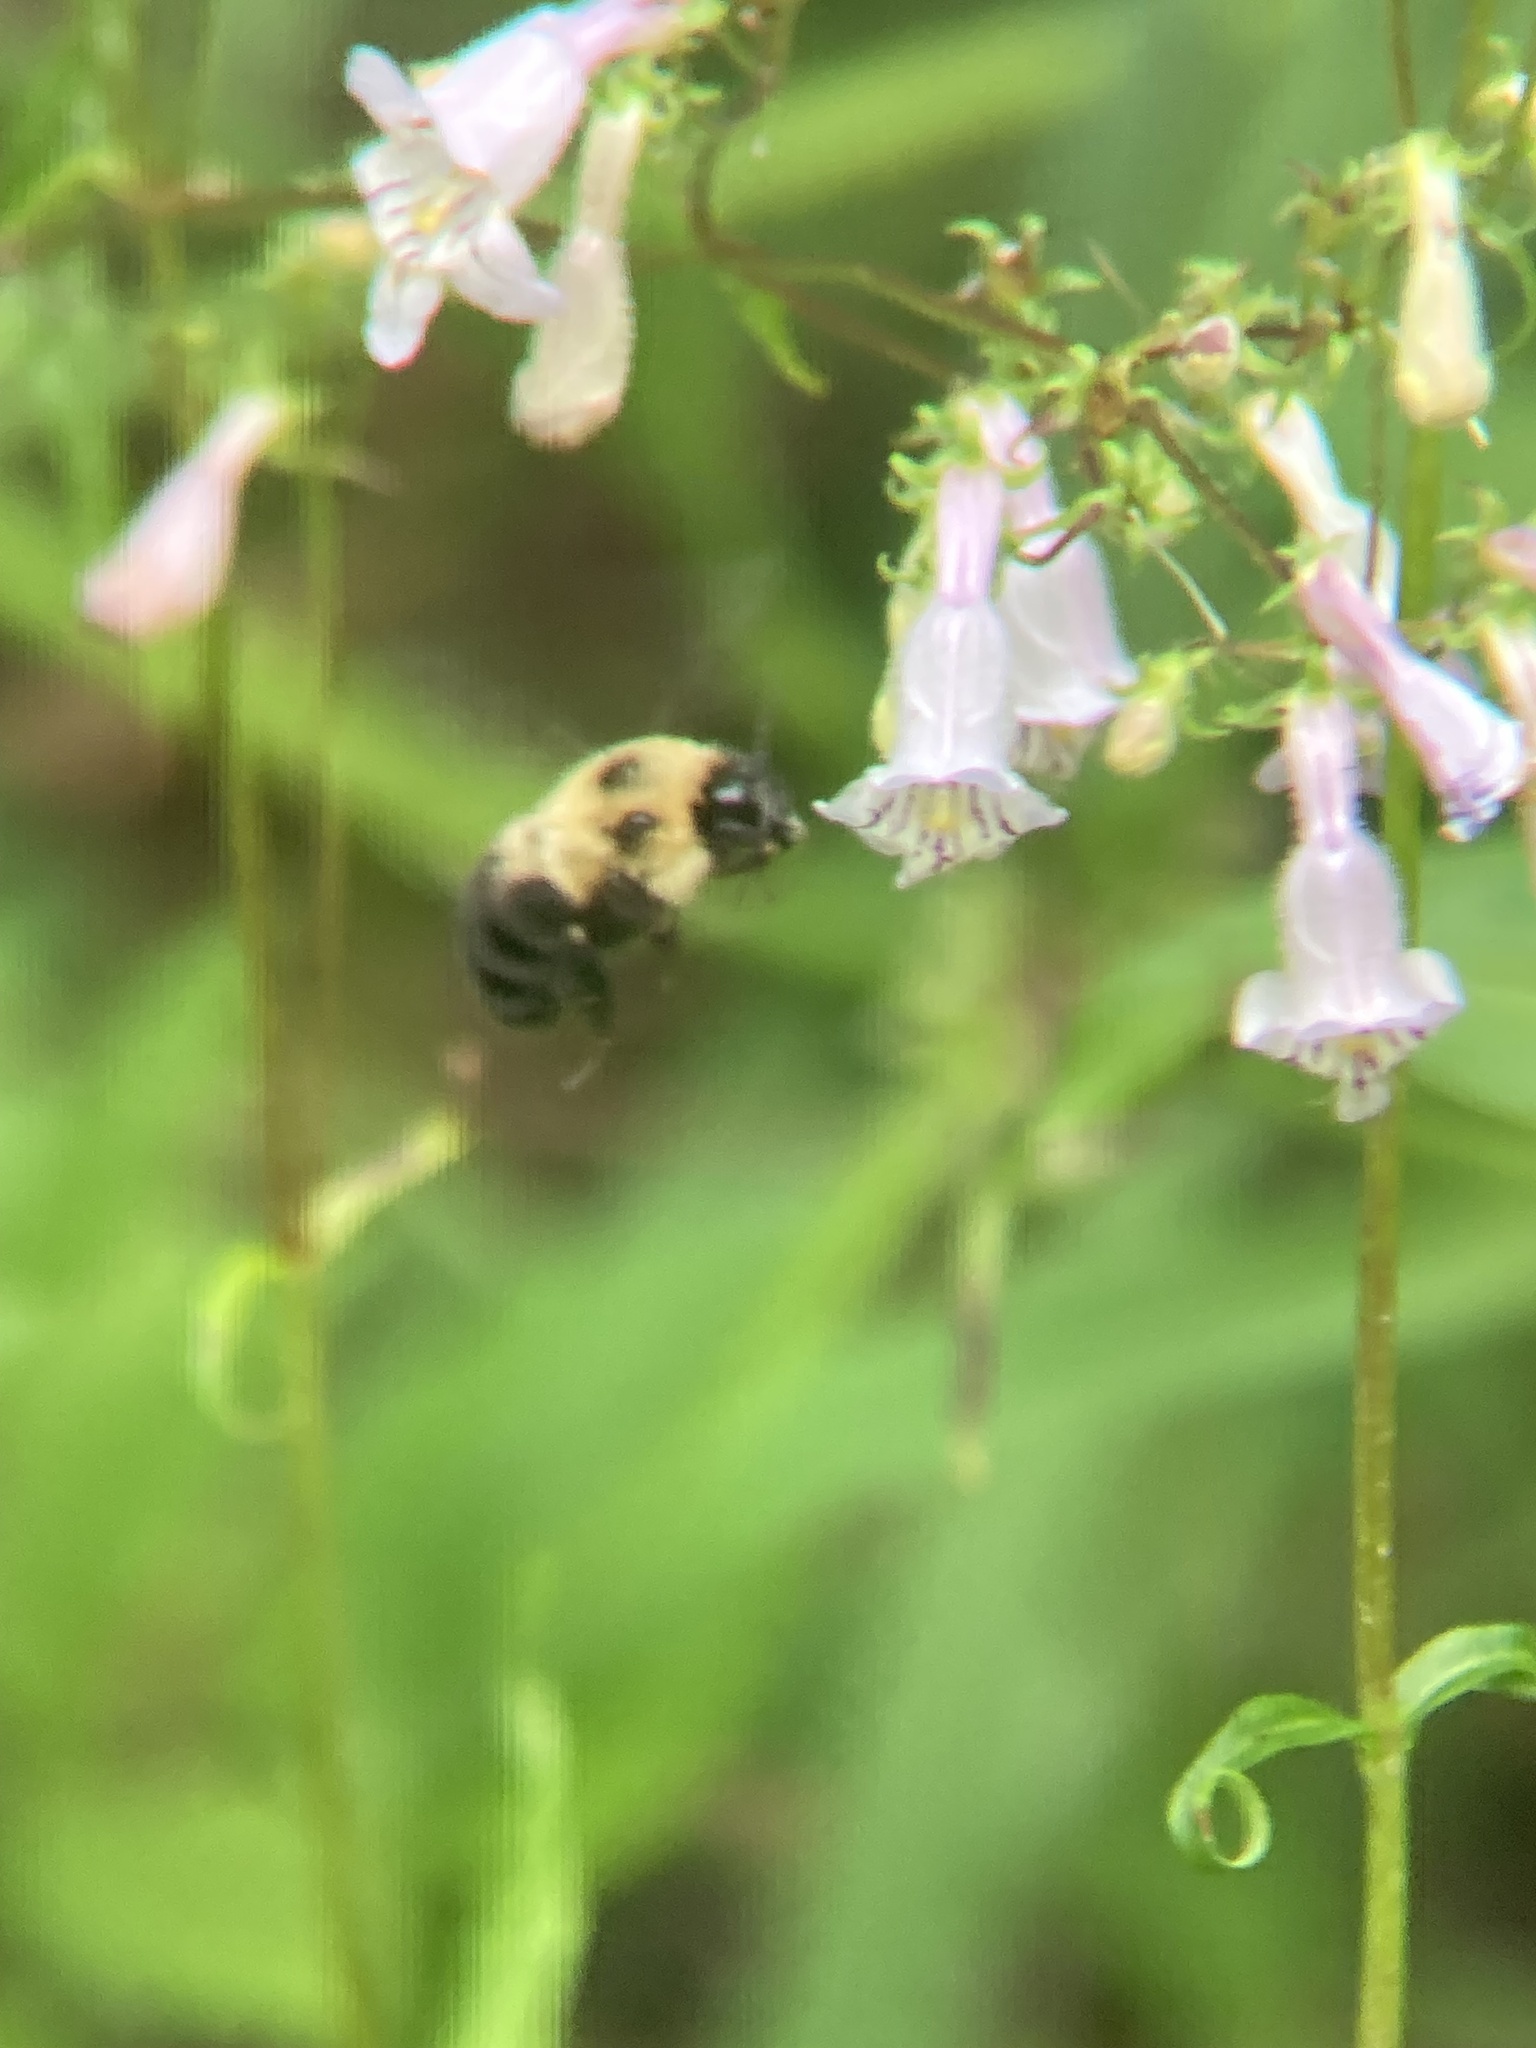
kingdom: Animalia
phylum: Arthropoda
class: Insecta
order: Hymenoptera
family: Apidae
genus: Bombus
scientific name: Bombus bimaculatus
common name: Two-spotted bumble bee
